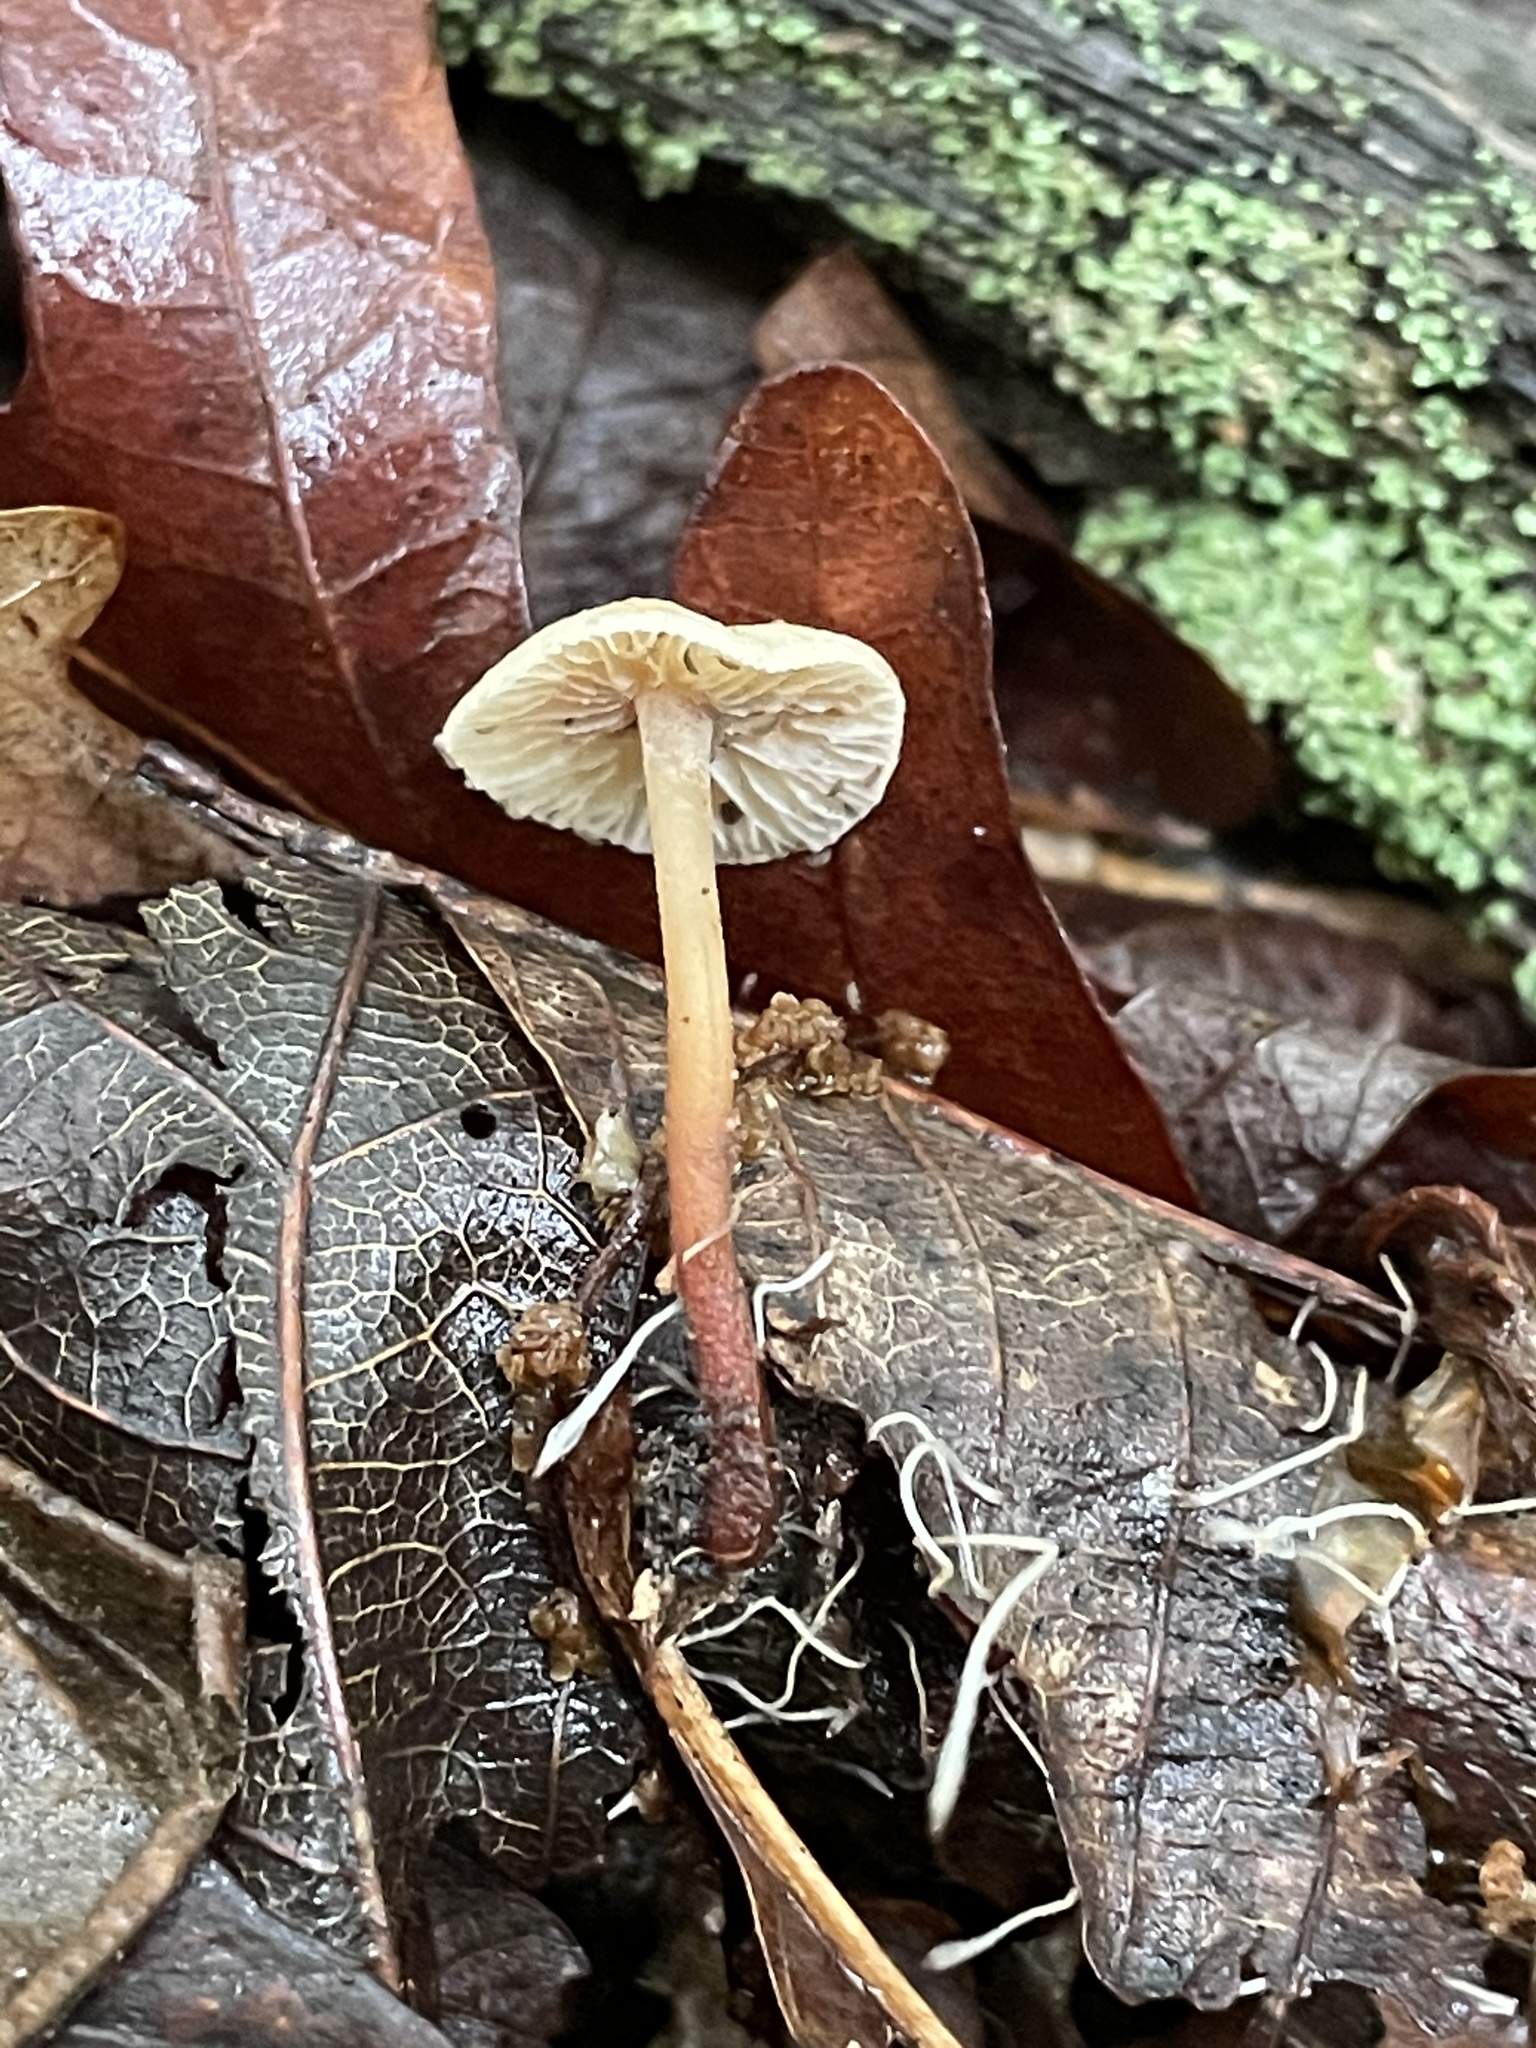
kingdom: Fungi
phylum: Basidiomycota
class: Agaricomycetes
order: Agaricales
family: Omphalotaceae
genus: Gymnopus
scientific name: Gymnopus spongiosus
